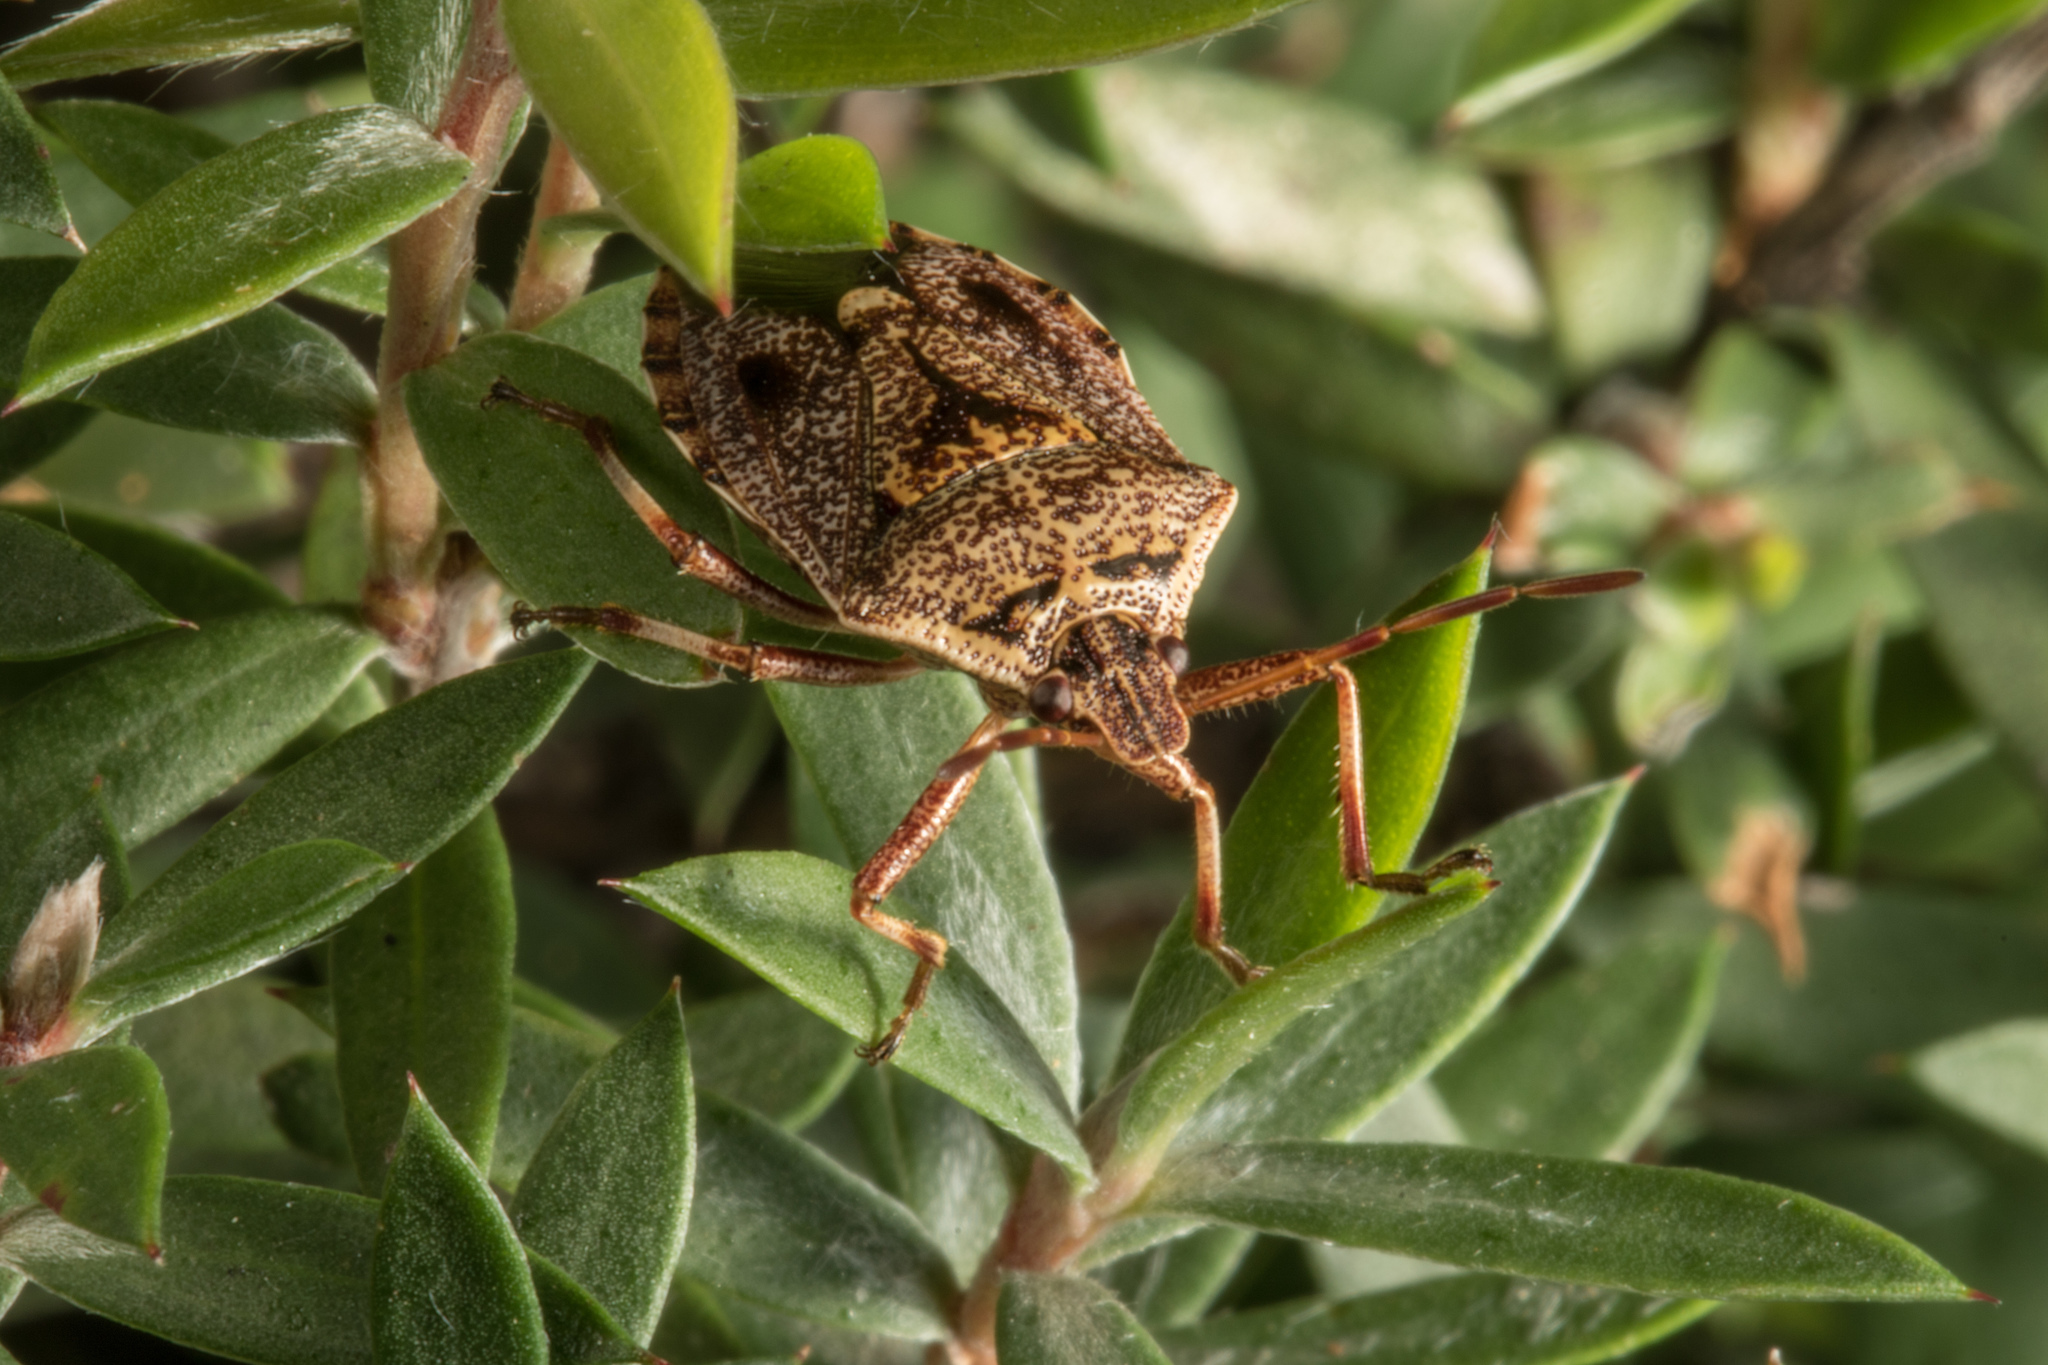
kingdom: Animalia
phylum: Arthropoda
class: Insecta
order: Hemiptera
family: Pentatomidae
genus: Cermatulus
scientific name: Cermatulus nasalis
